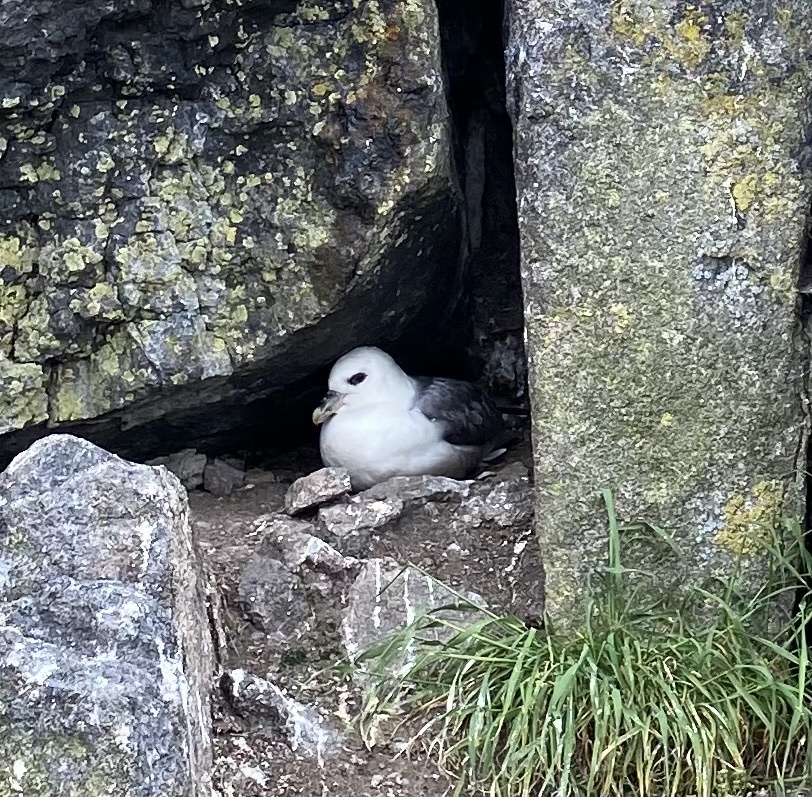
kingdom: Animalia
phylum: Chordata
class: Aves
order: Procellariiformes
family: Procellariidae
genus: Fulmarus
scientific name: Fulmarus glacialis
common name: Northern fulmar
